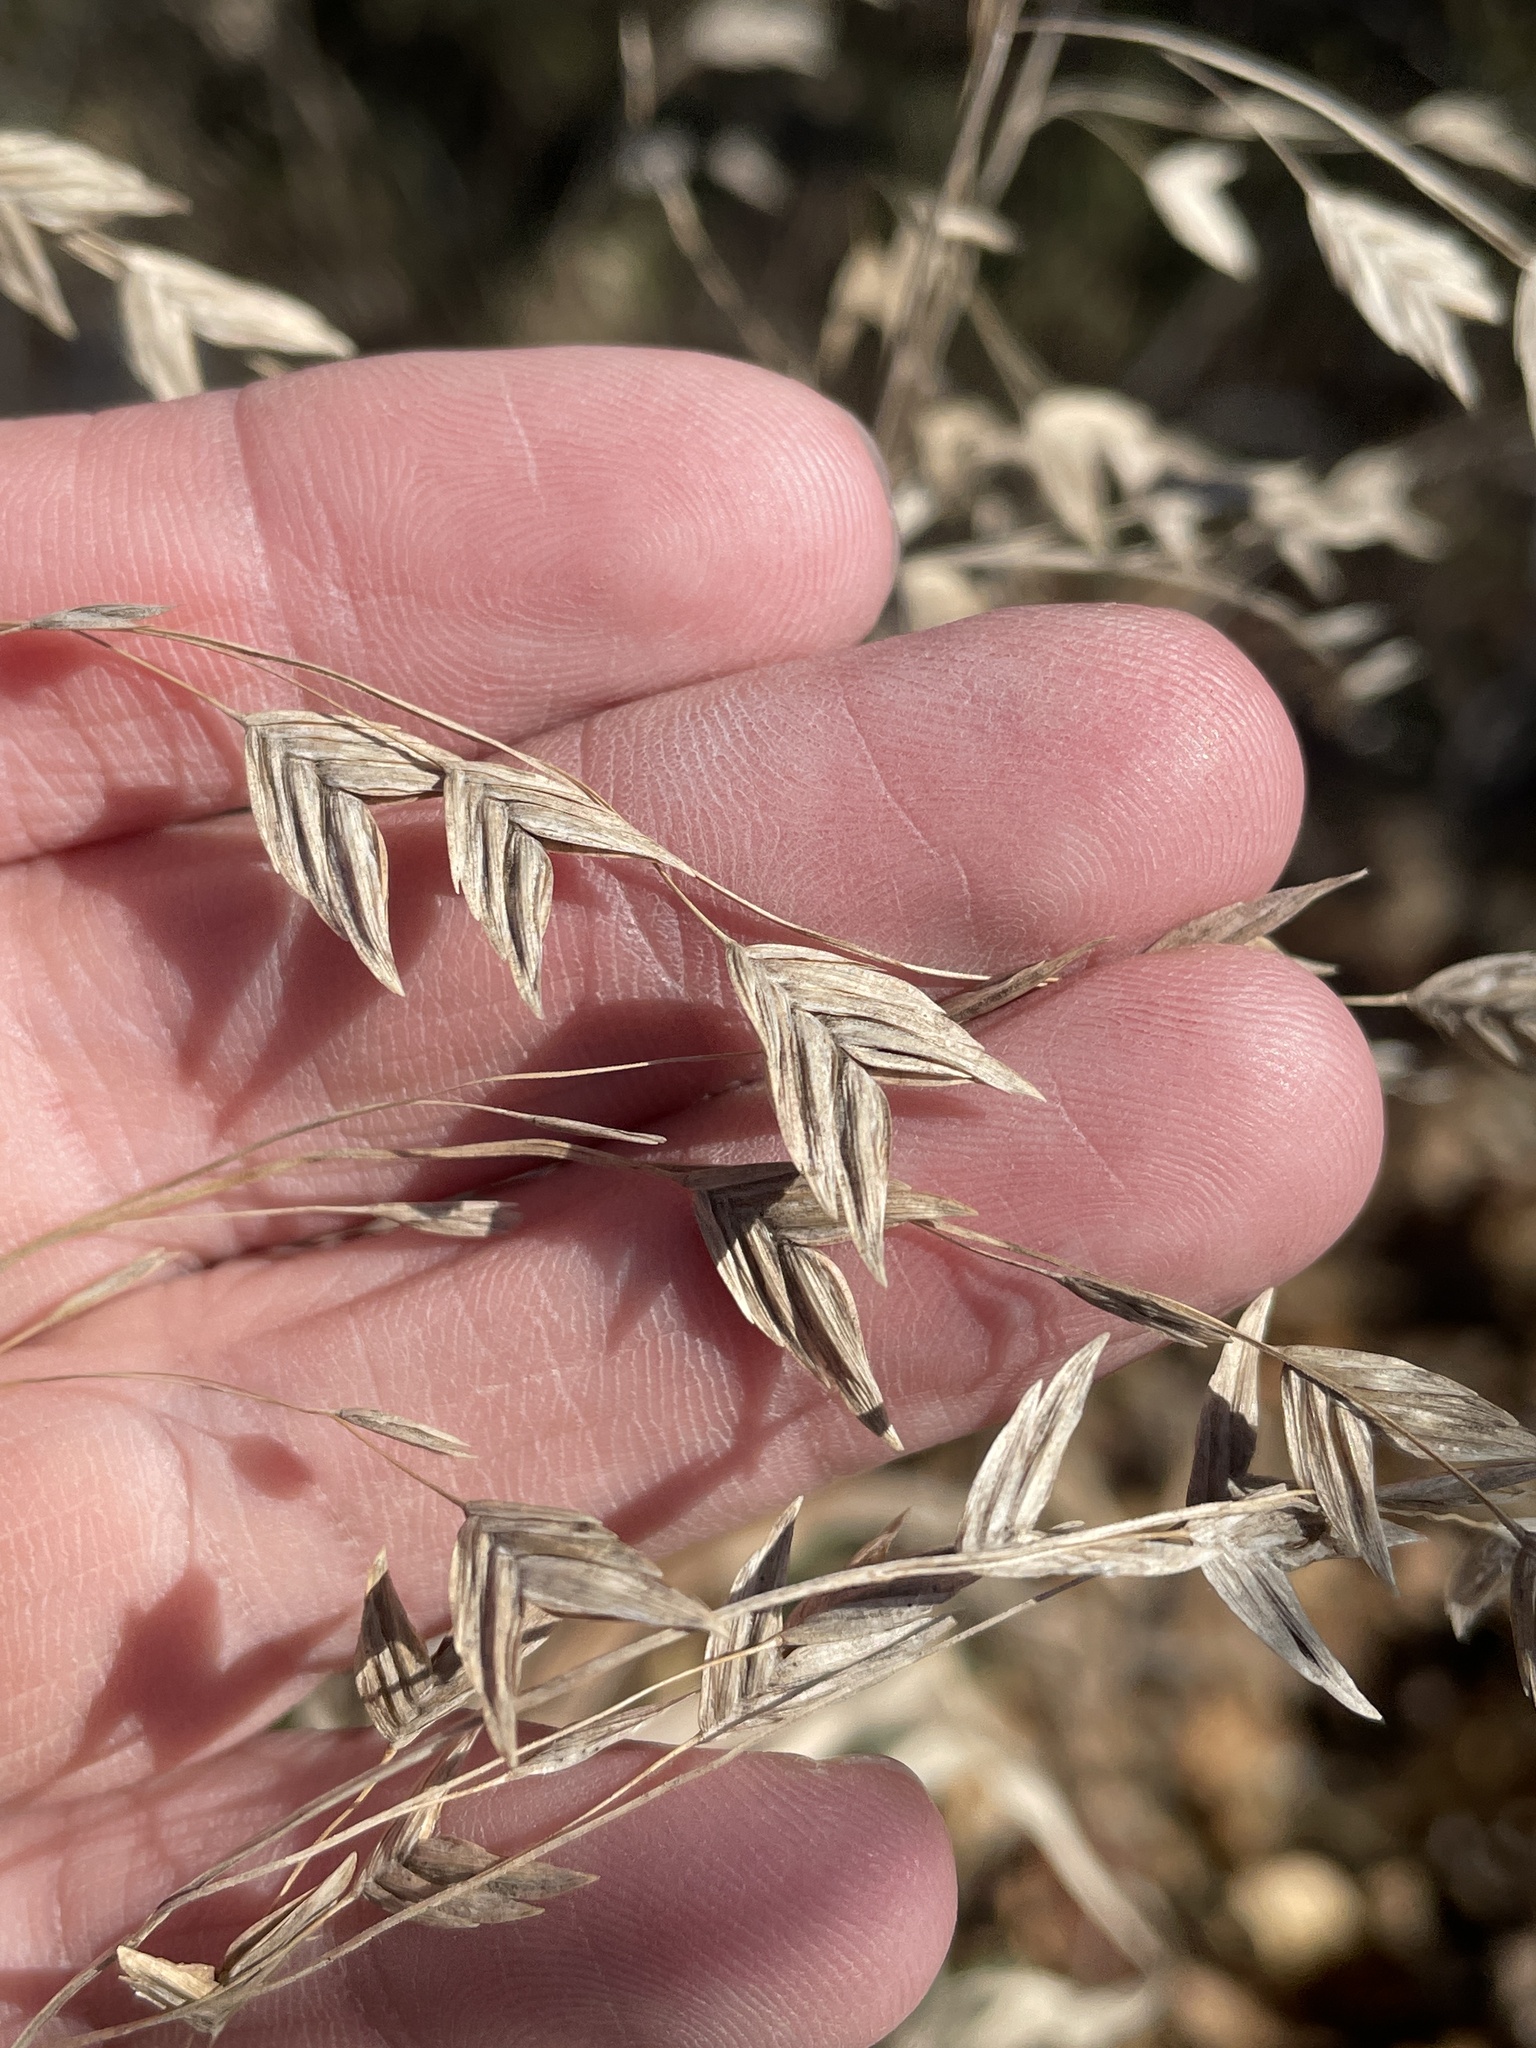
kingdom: Plantae
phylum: Tracheophyta
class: Liliopsida
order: Poales
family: Poaceae
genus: Chasmanthium
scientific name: Chasmanthium latifolium
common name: Broad-leaved chasmanthium
